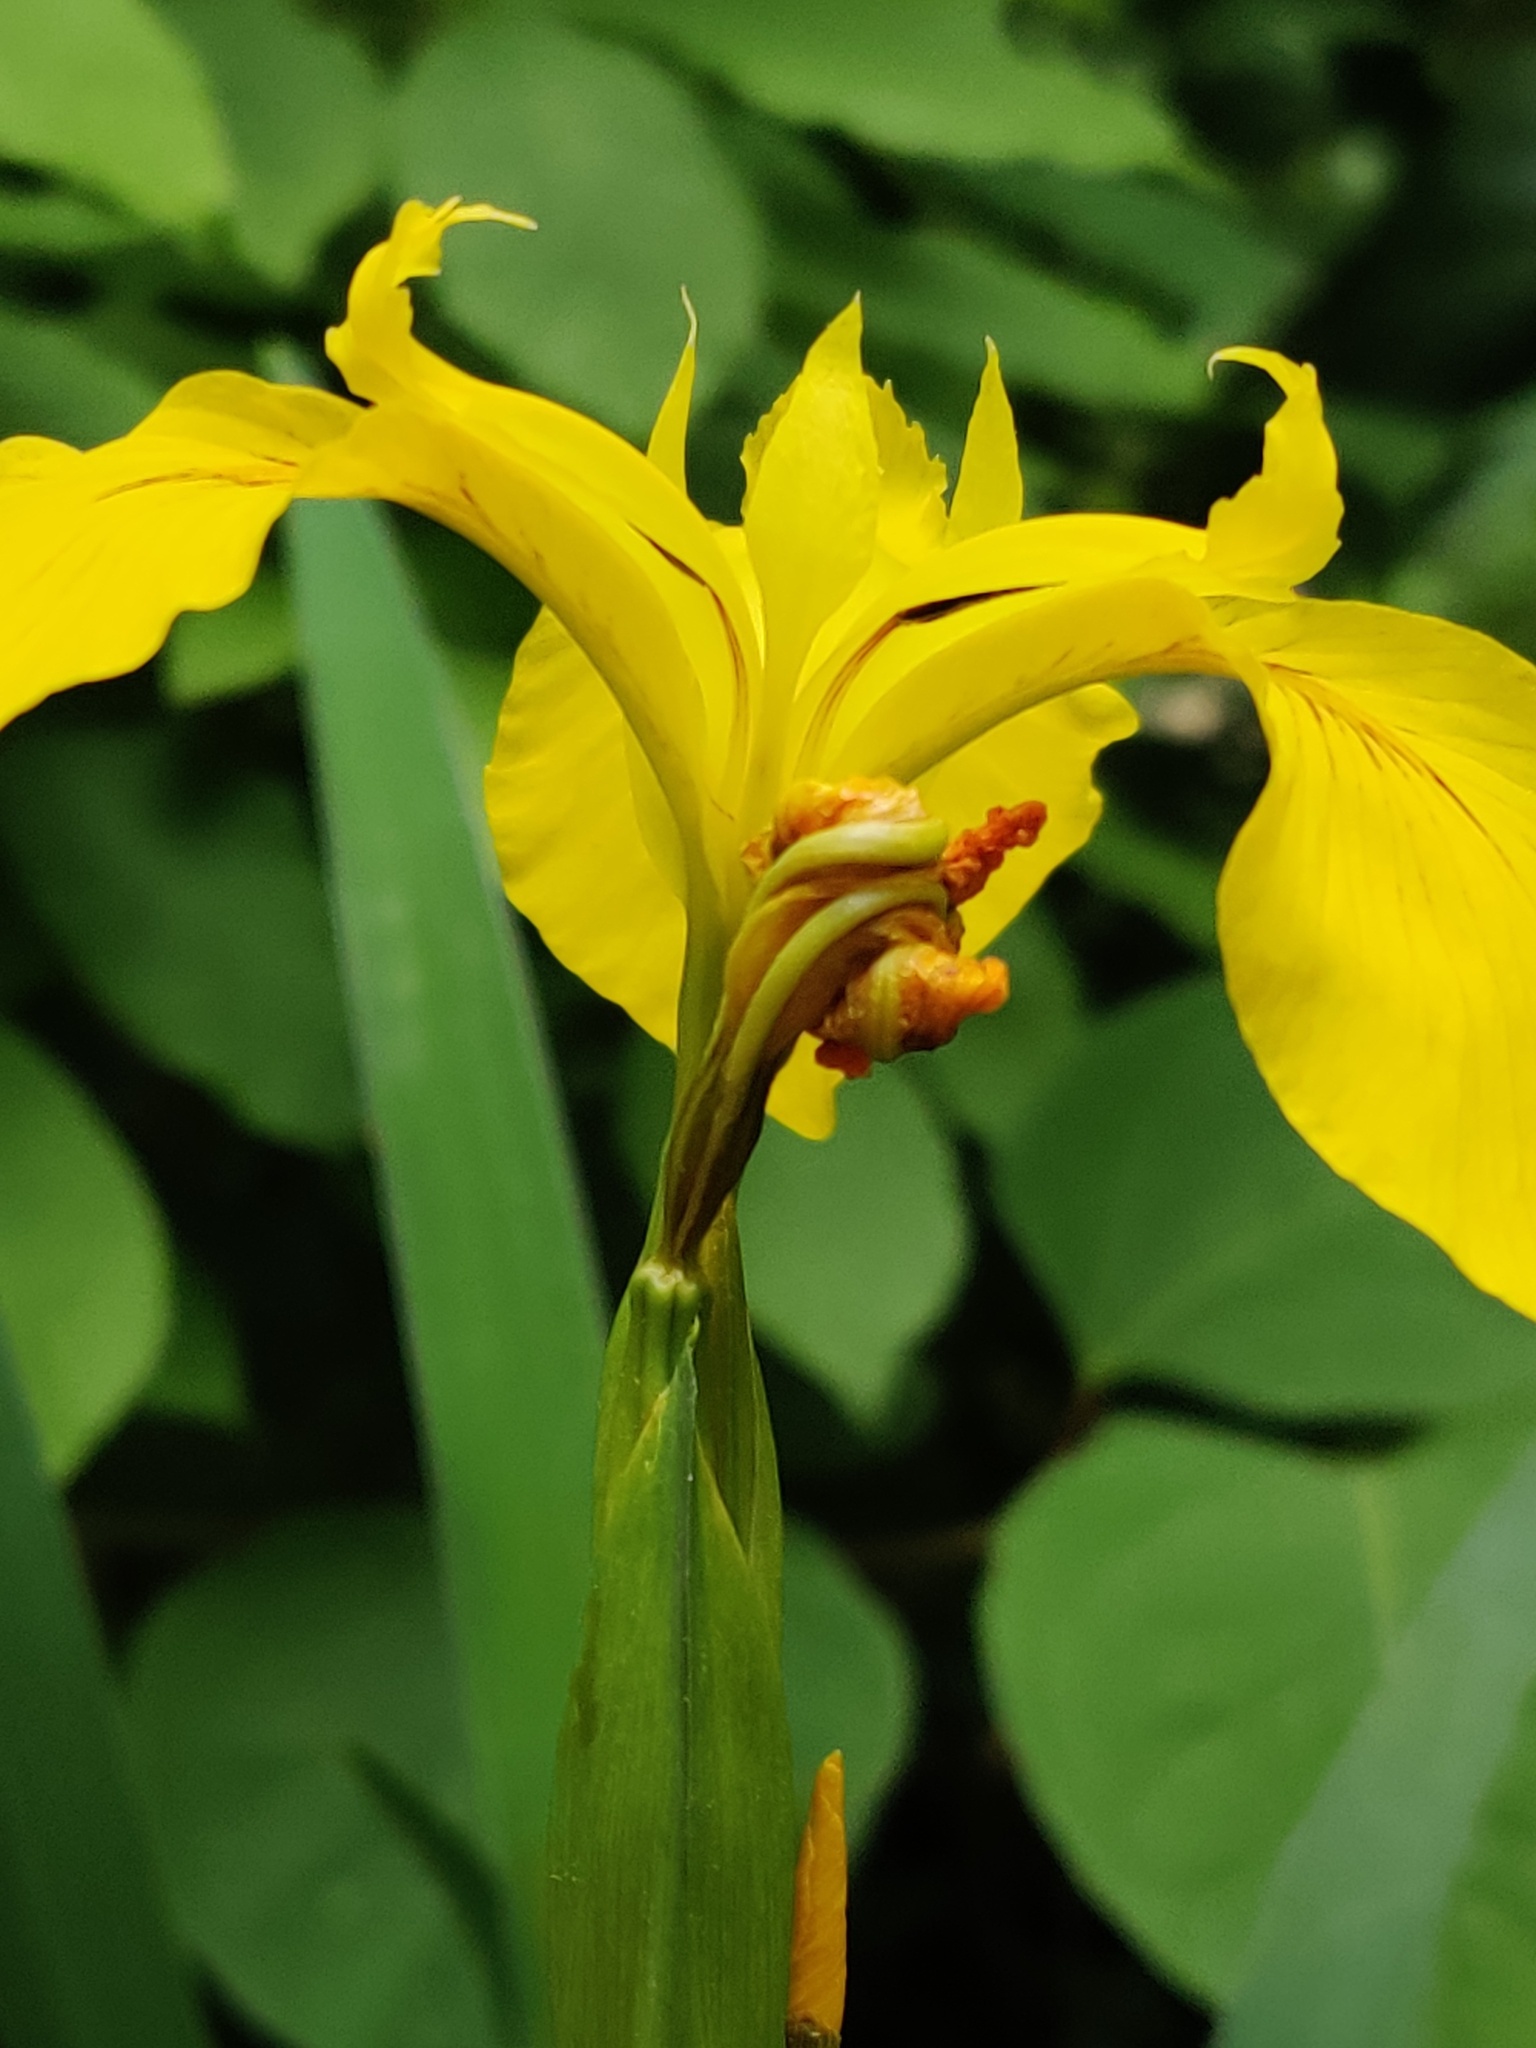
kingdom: Plantae
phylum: Tracheophyta
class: Liliopsida
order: Asparagales
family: Iridaceae
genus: Iris
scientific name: Iris pseudacorus
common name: Yellow flag
